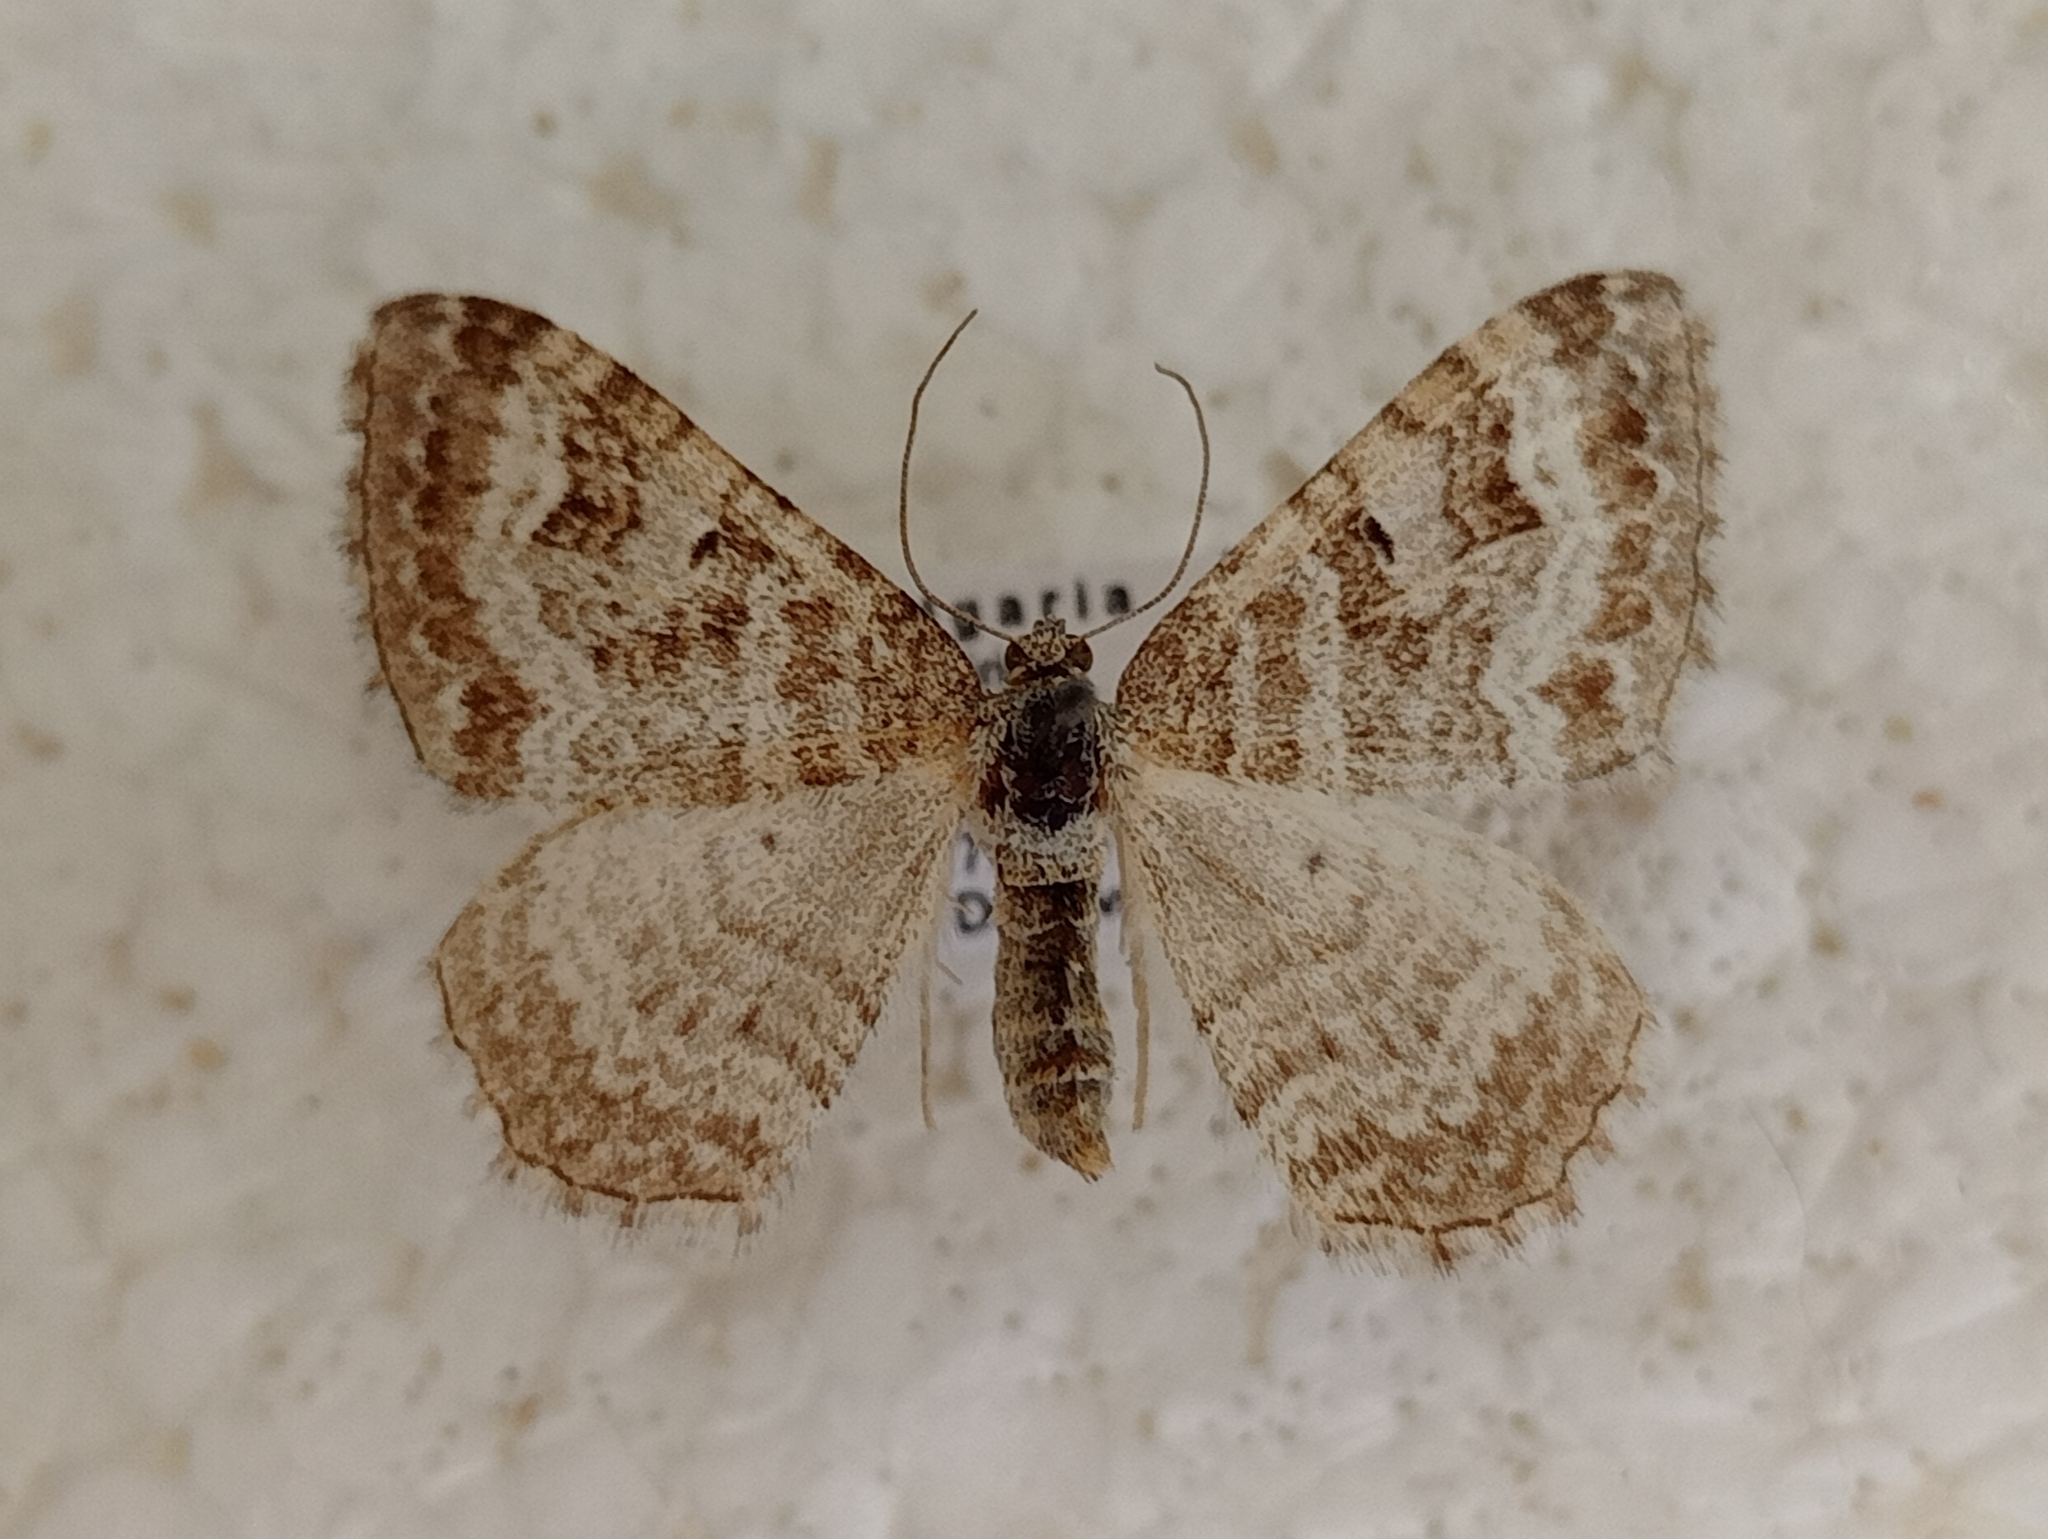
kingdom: Animalia
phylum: Arthropoda
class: Insecta
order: Lepidoptera
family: Geometridae
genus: Euphyia
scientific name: Euphyia molluginata
